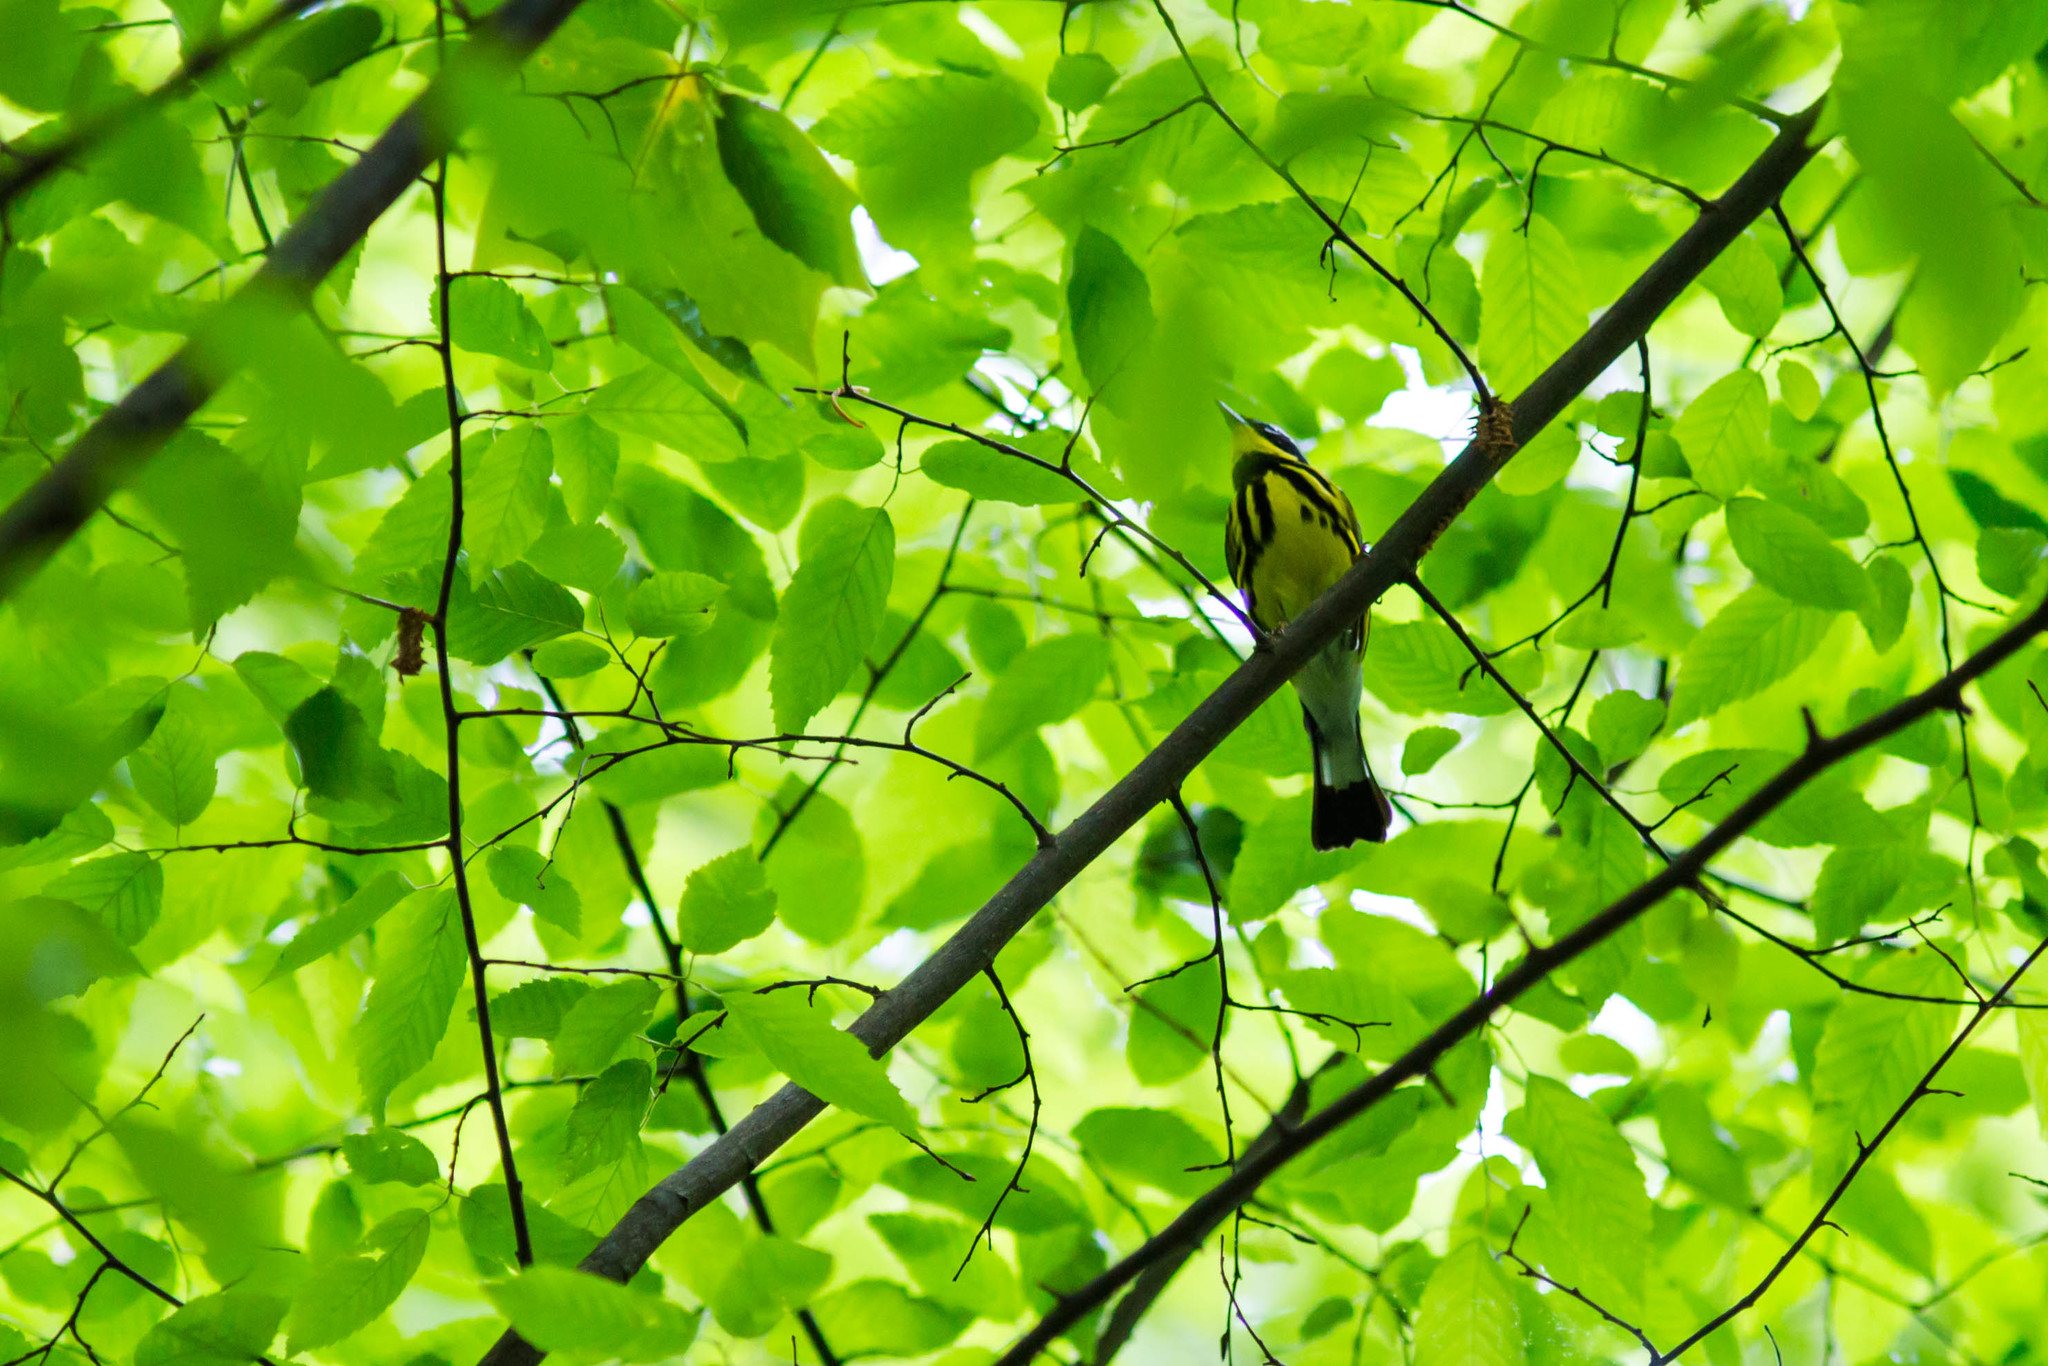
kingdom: Animalia
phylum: Chordata
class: Aves
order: Passeriformes
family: Parulidae
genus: Setophaga
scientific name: Setophaga magnolia
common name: Magnolia warbler
